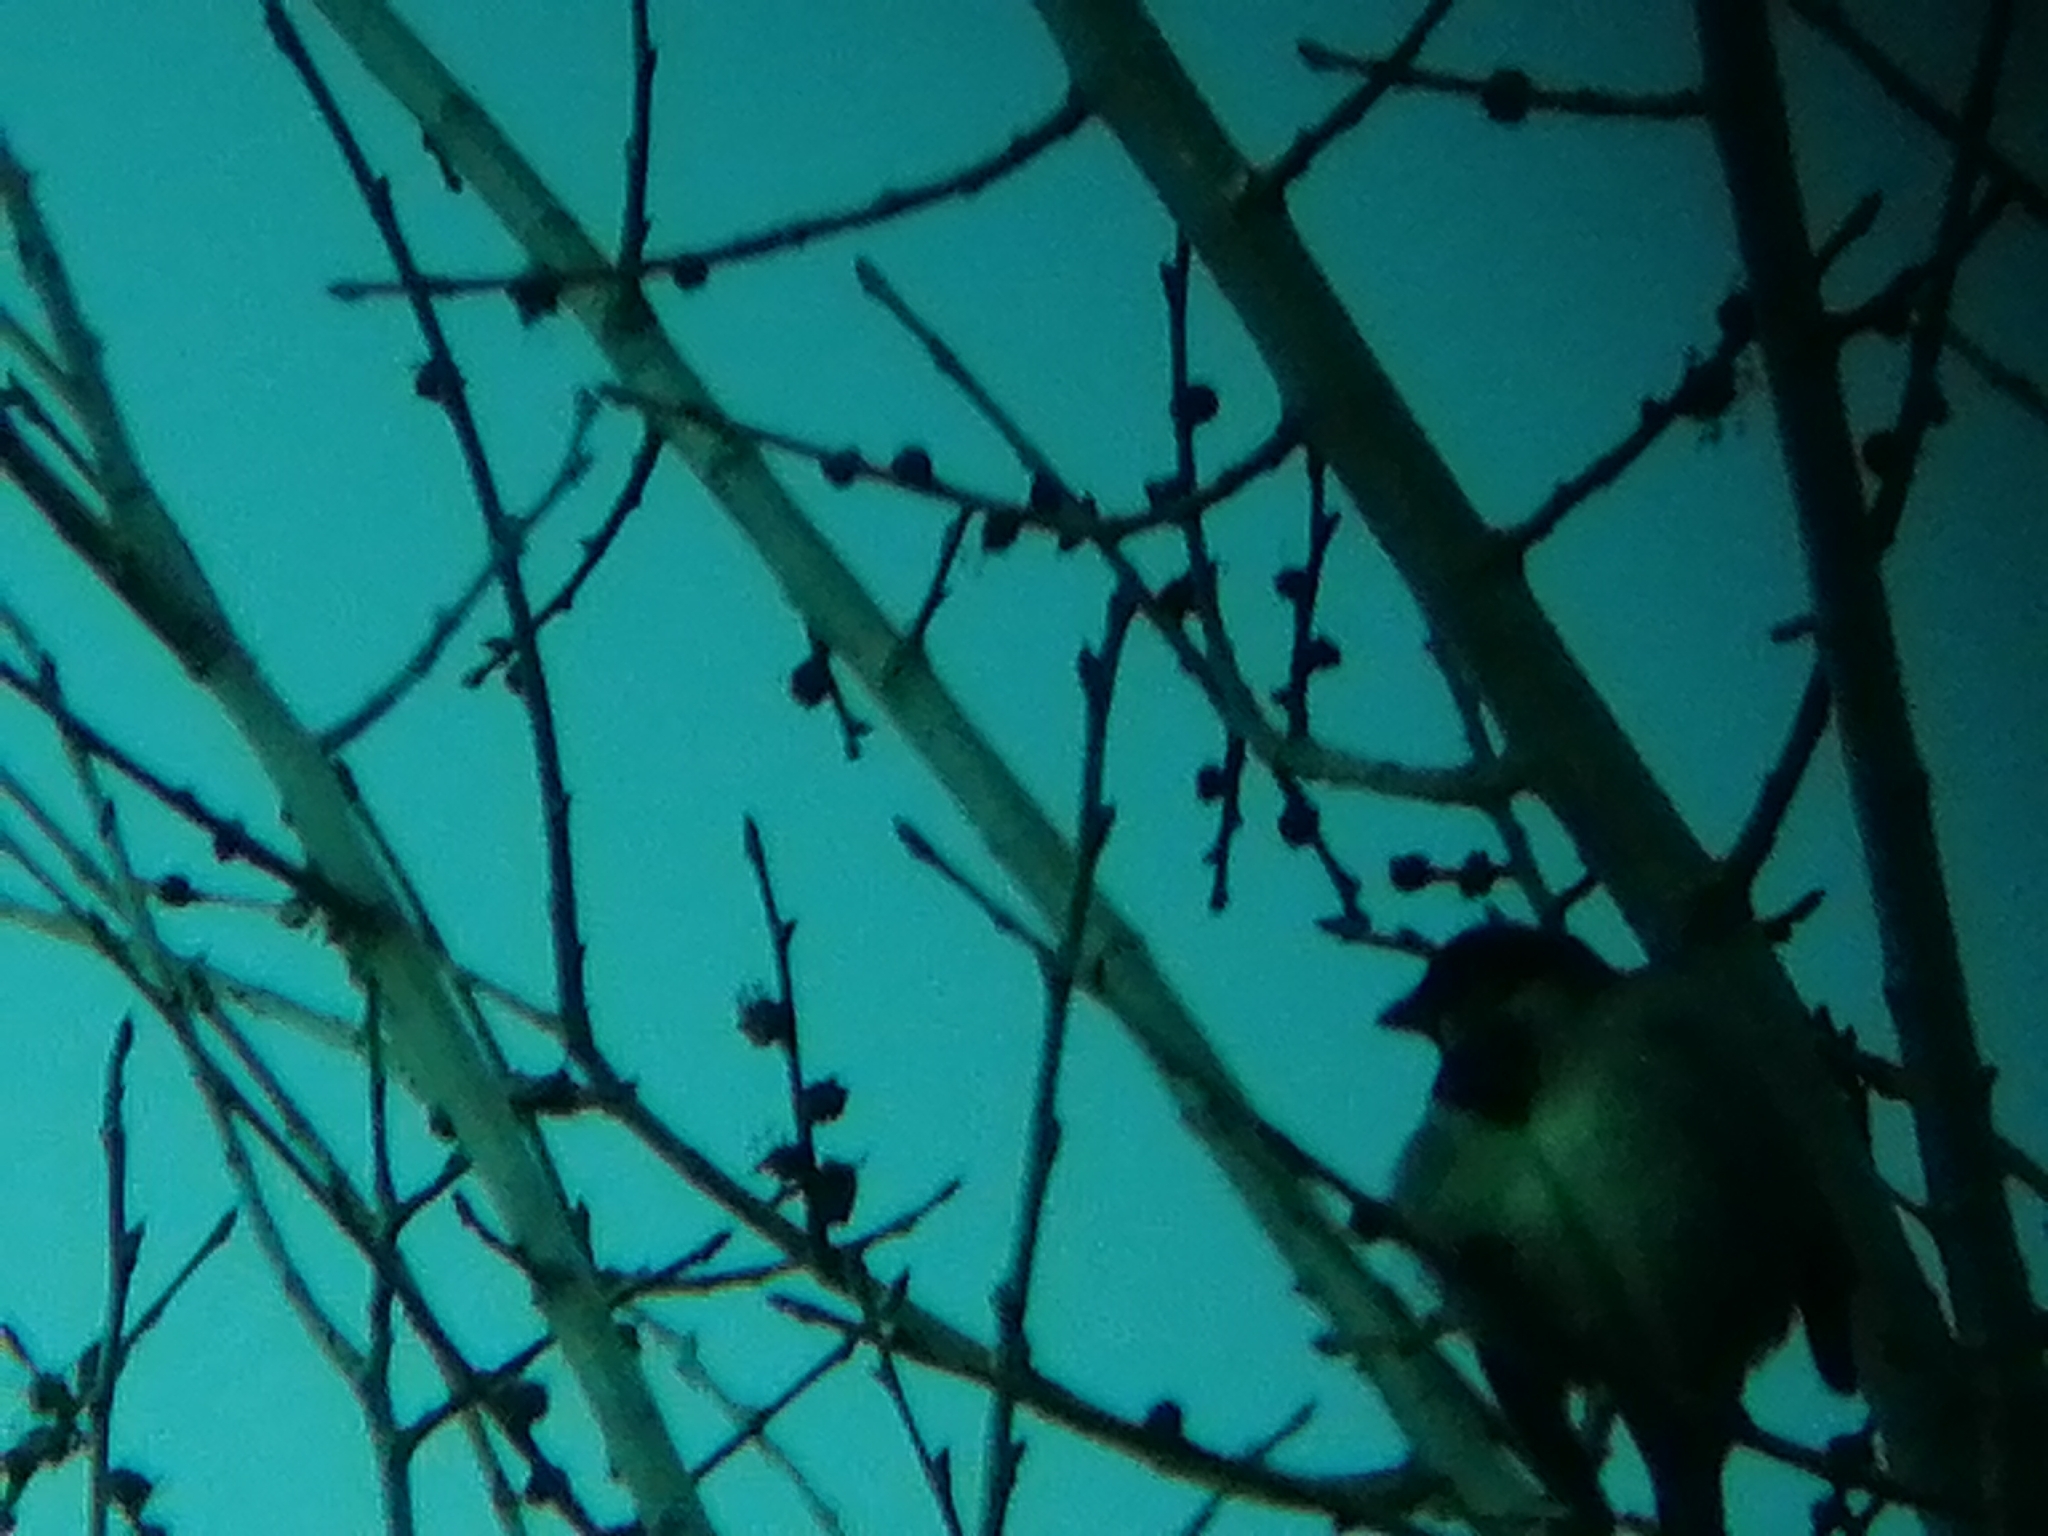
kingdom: Animalia
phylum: Chordata
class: Aves
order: Passeriformes
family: Passeridae
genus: Passer
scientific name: Passer domesticus
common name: House sparrow
